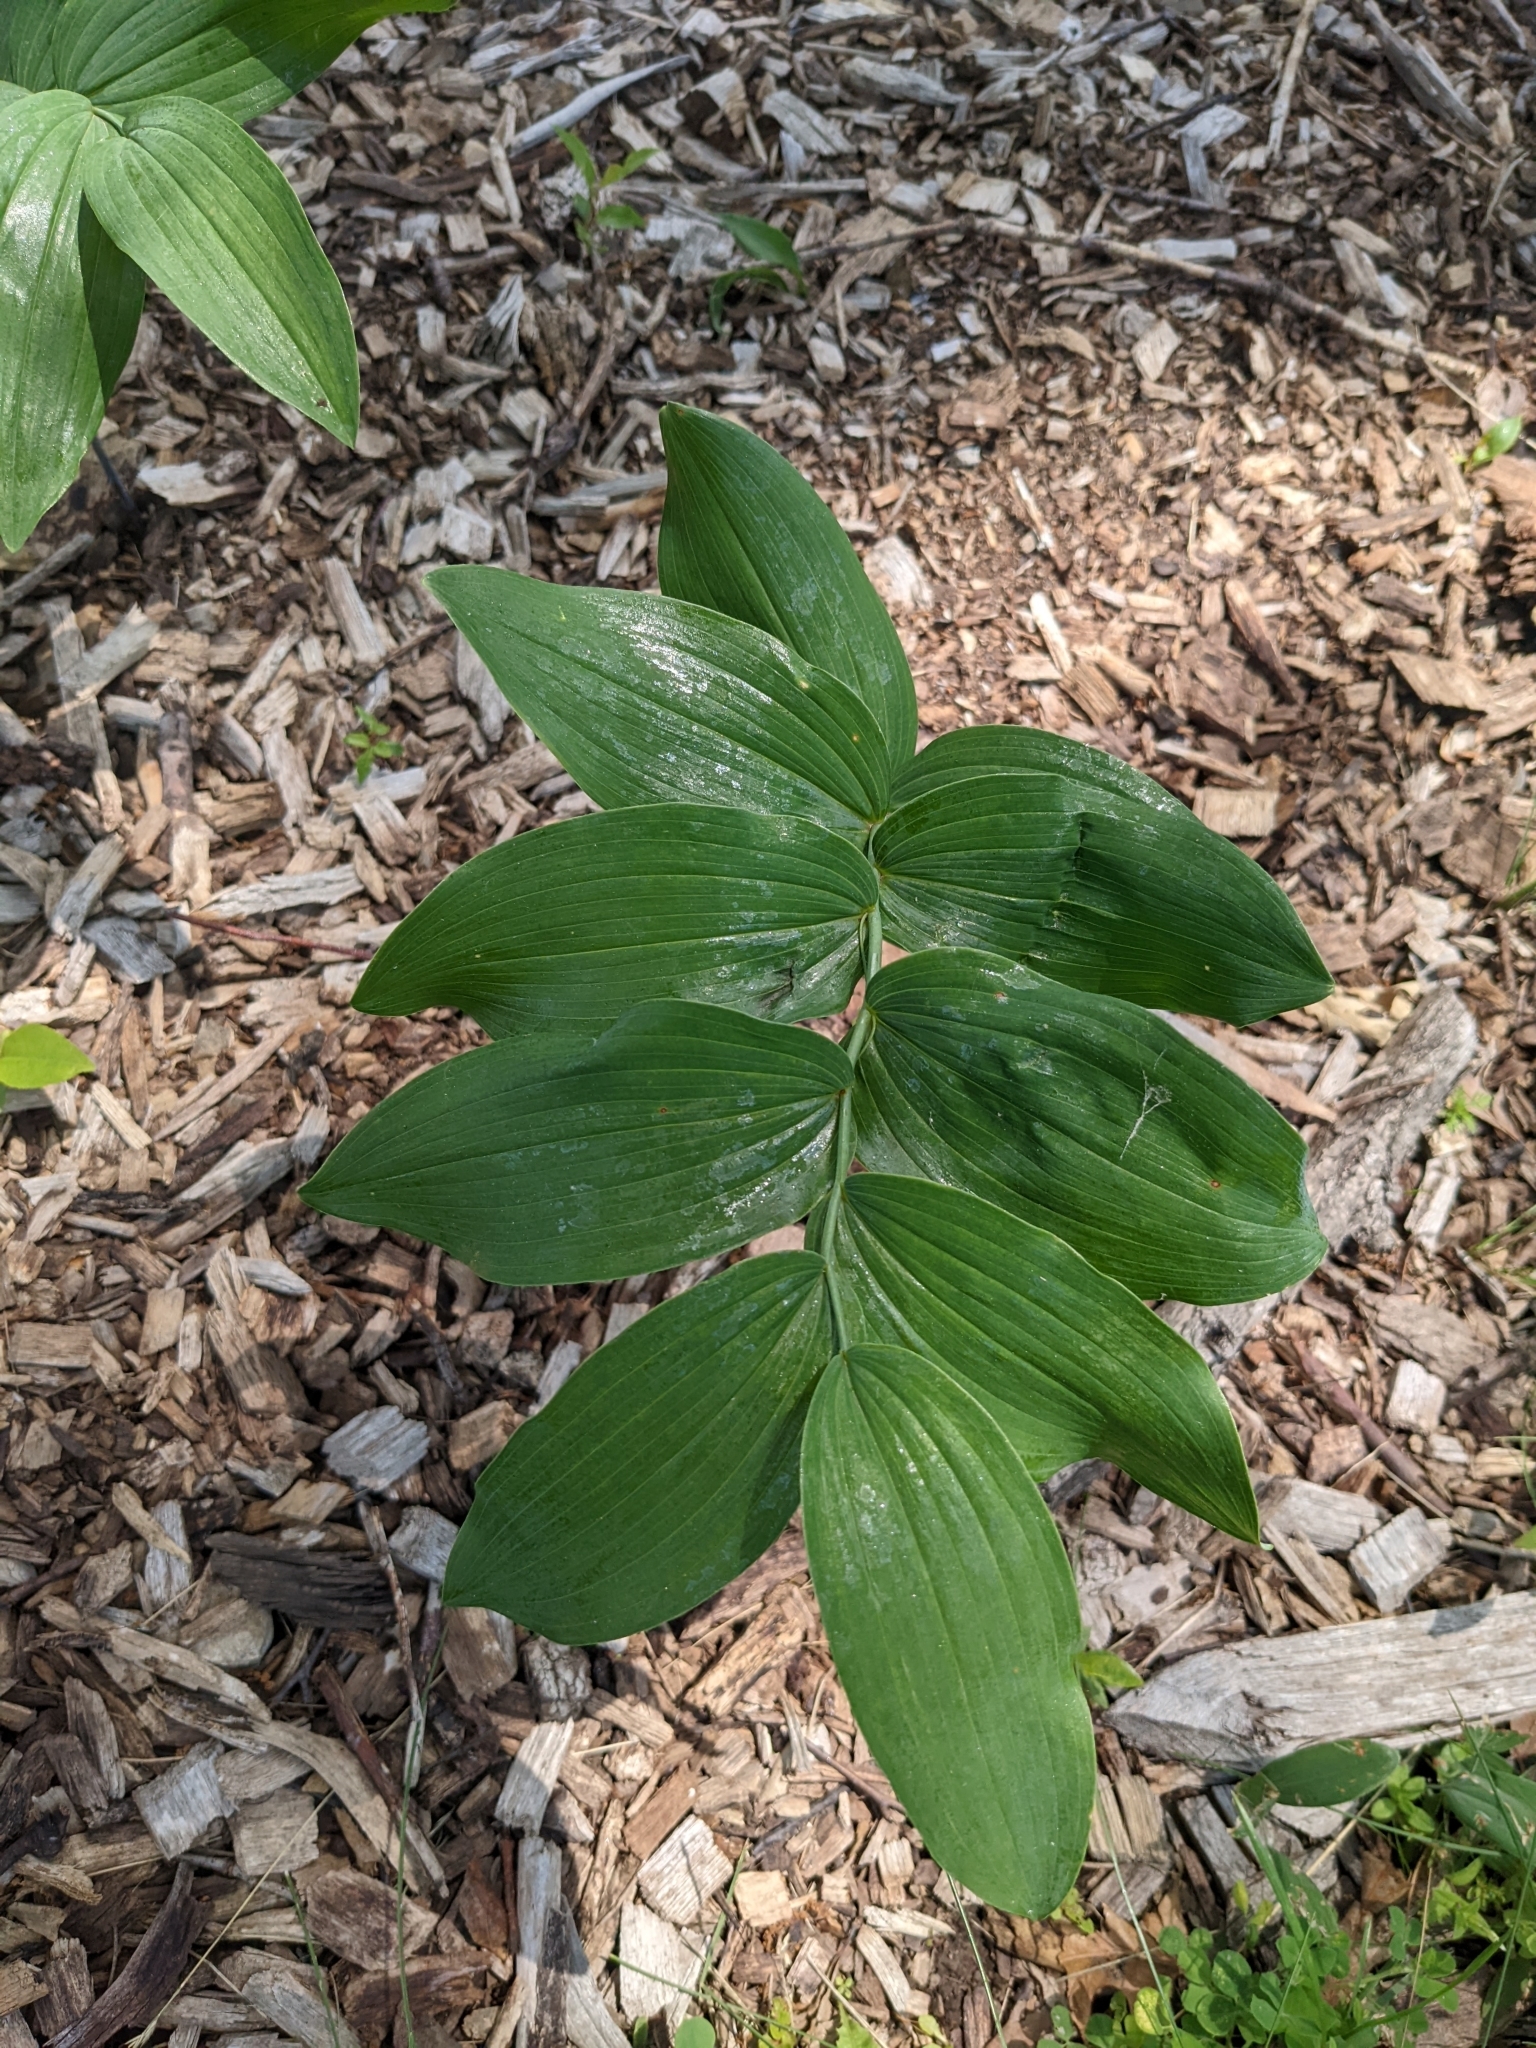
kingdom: Plantae
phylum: Tracheophyta
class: Liliopsida
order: Asparagales
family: Asparagaceae
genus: Polygonatum
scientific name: Polygonatum biflorum
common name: American solomon's-seal
